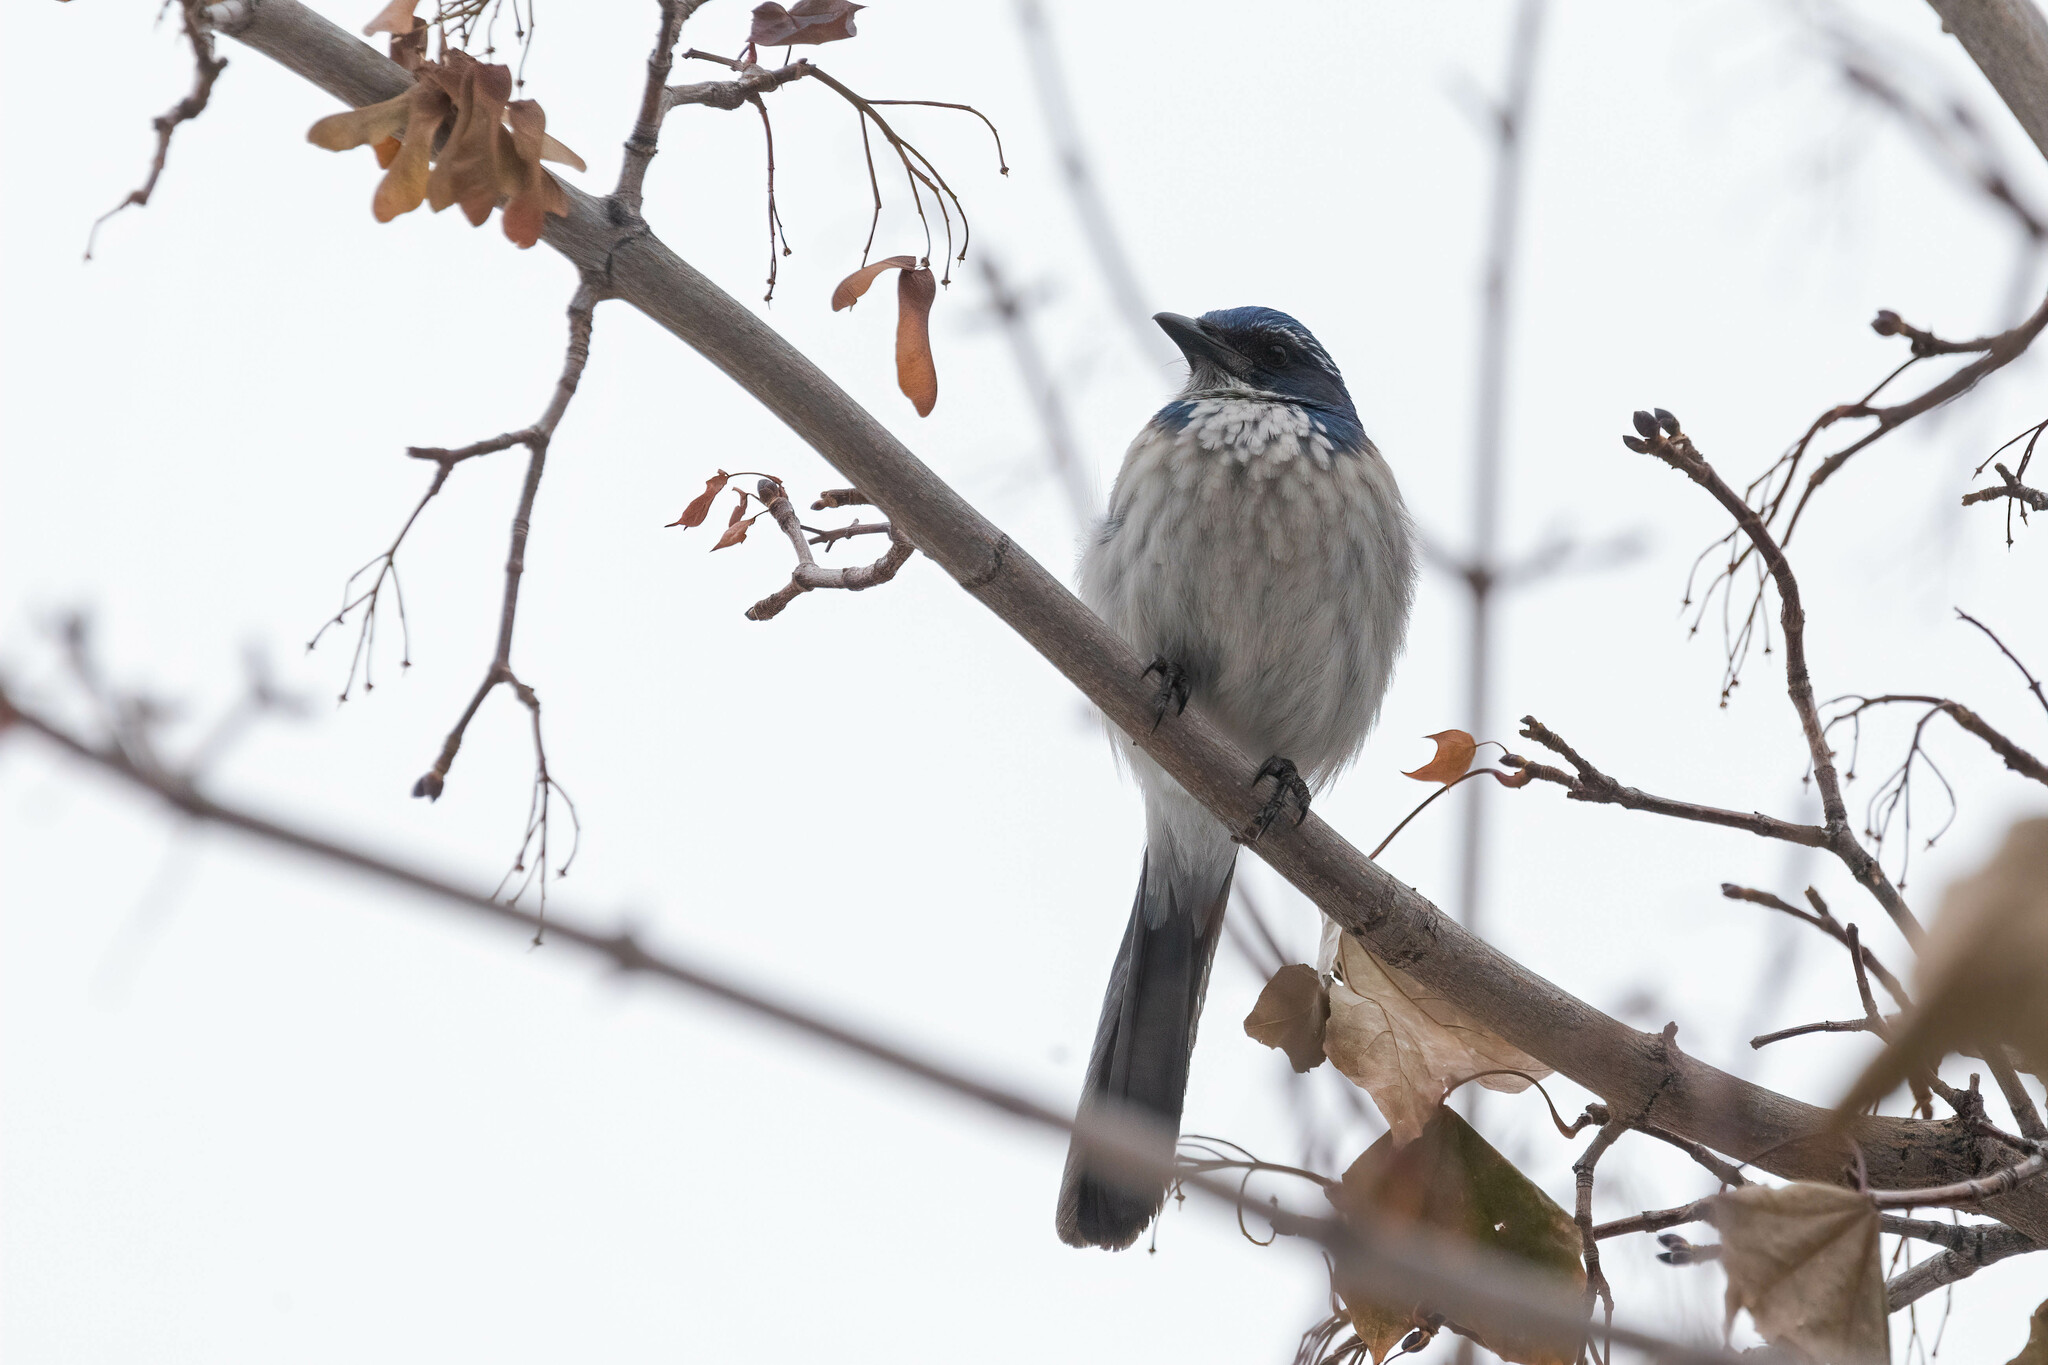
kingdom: Animalia
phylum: Chordata
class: Aves
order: Passeriformes
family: Corvidae
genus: Aphelocoma
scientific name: Aphelocoma californica
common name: California scrub-jay
